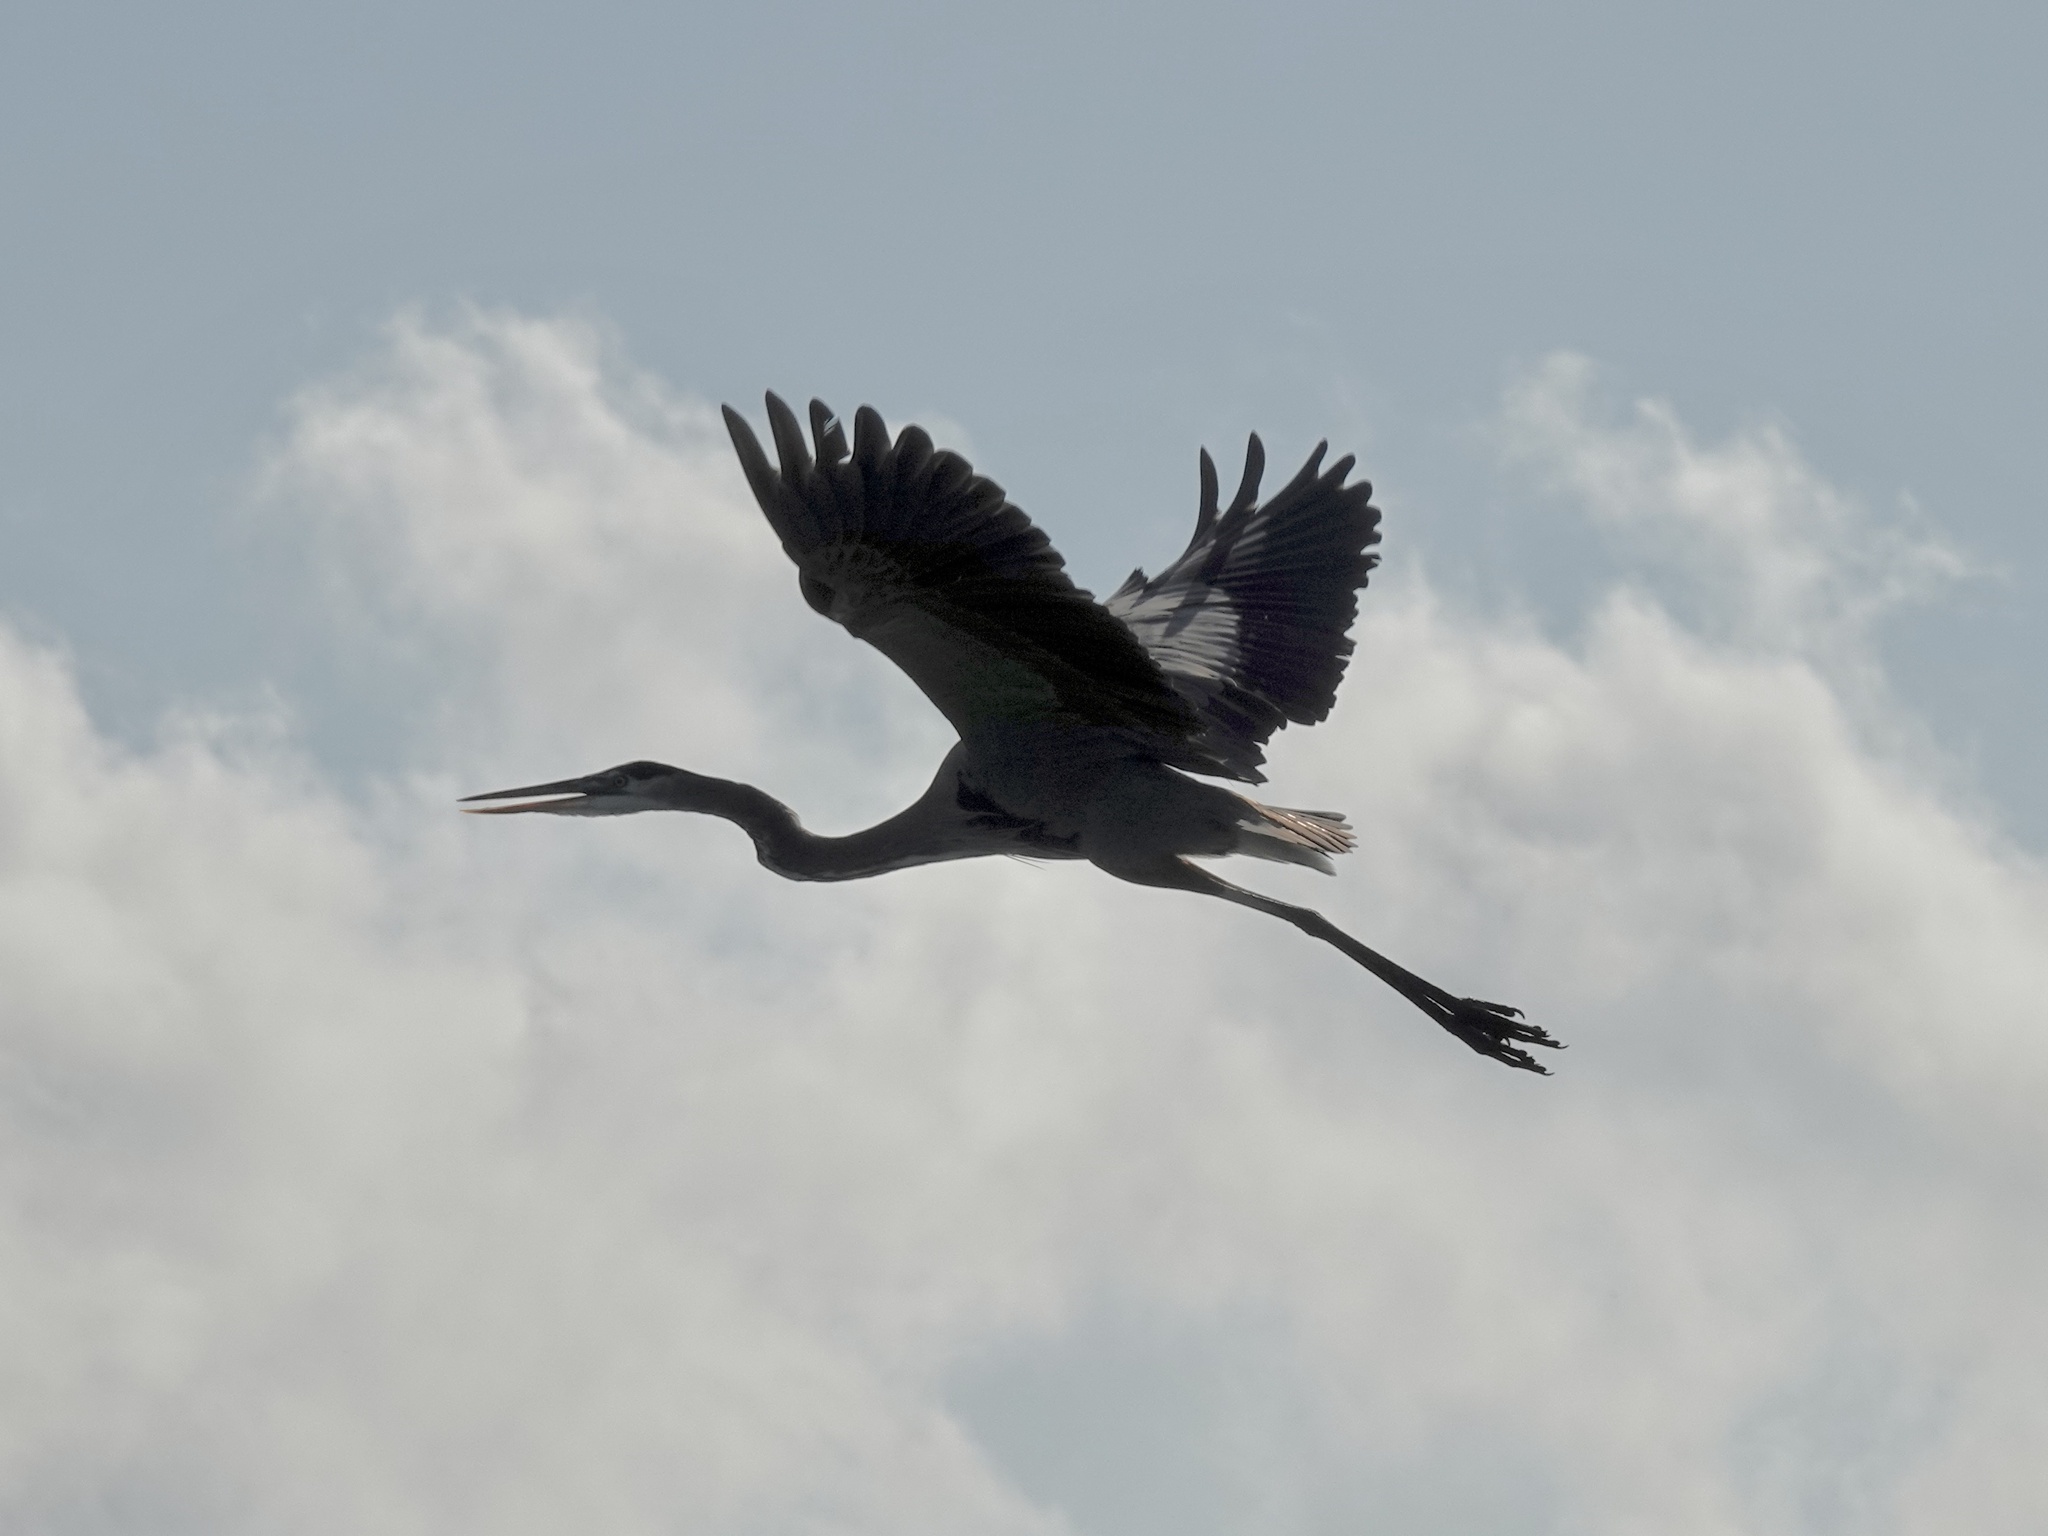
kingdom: Animalia
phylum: Chordata
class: Aves
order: Pelecaniformes
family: Ardeidae
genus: Ardea
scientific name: Ardea herodias
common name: Great blue heron
